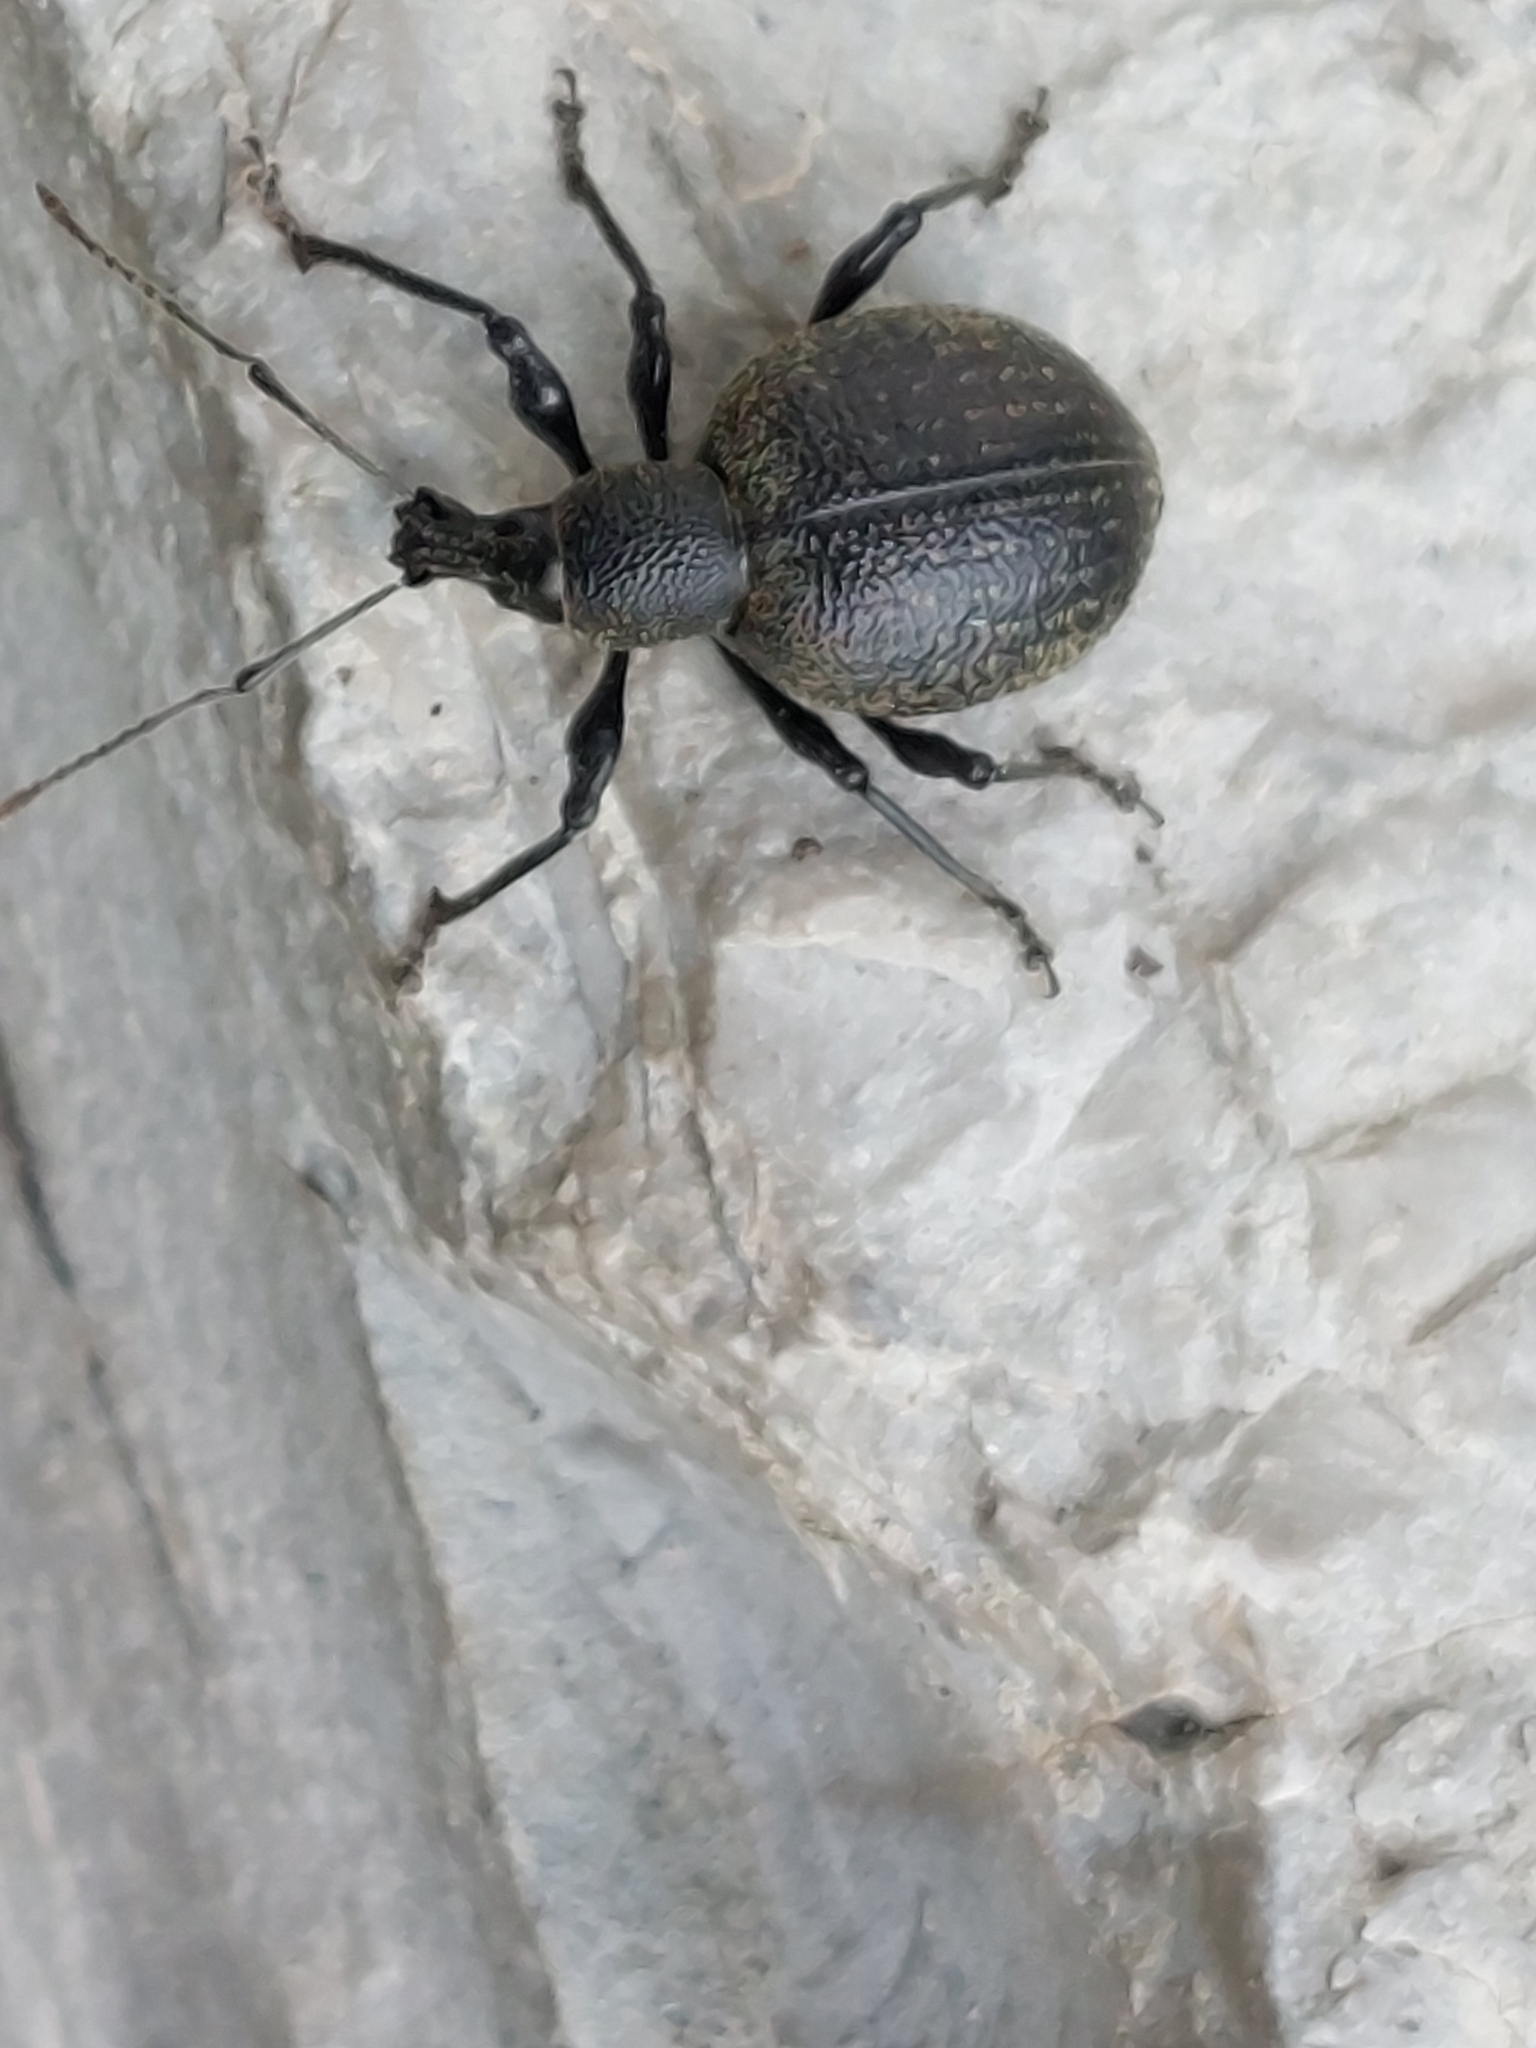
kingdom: Animalia
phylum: Arthropoda
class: Insecta
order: Coleoptera
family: Curculionidae
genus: Otiorhynchus
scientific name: Otiorhynchus armadillo
